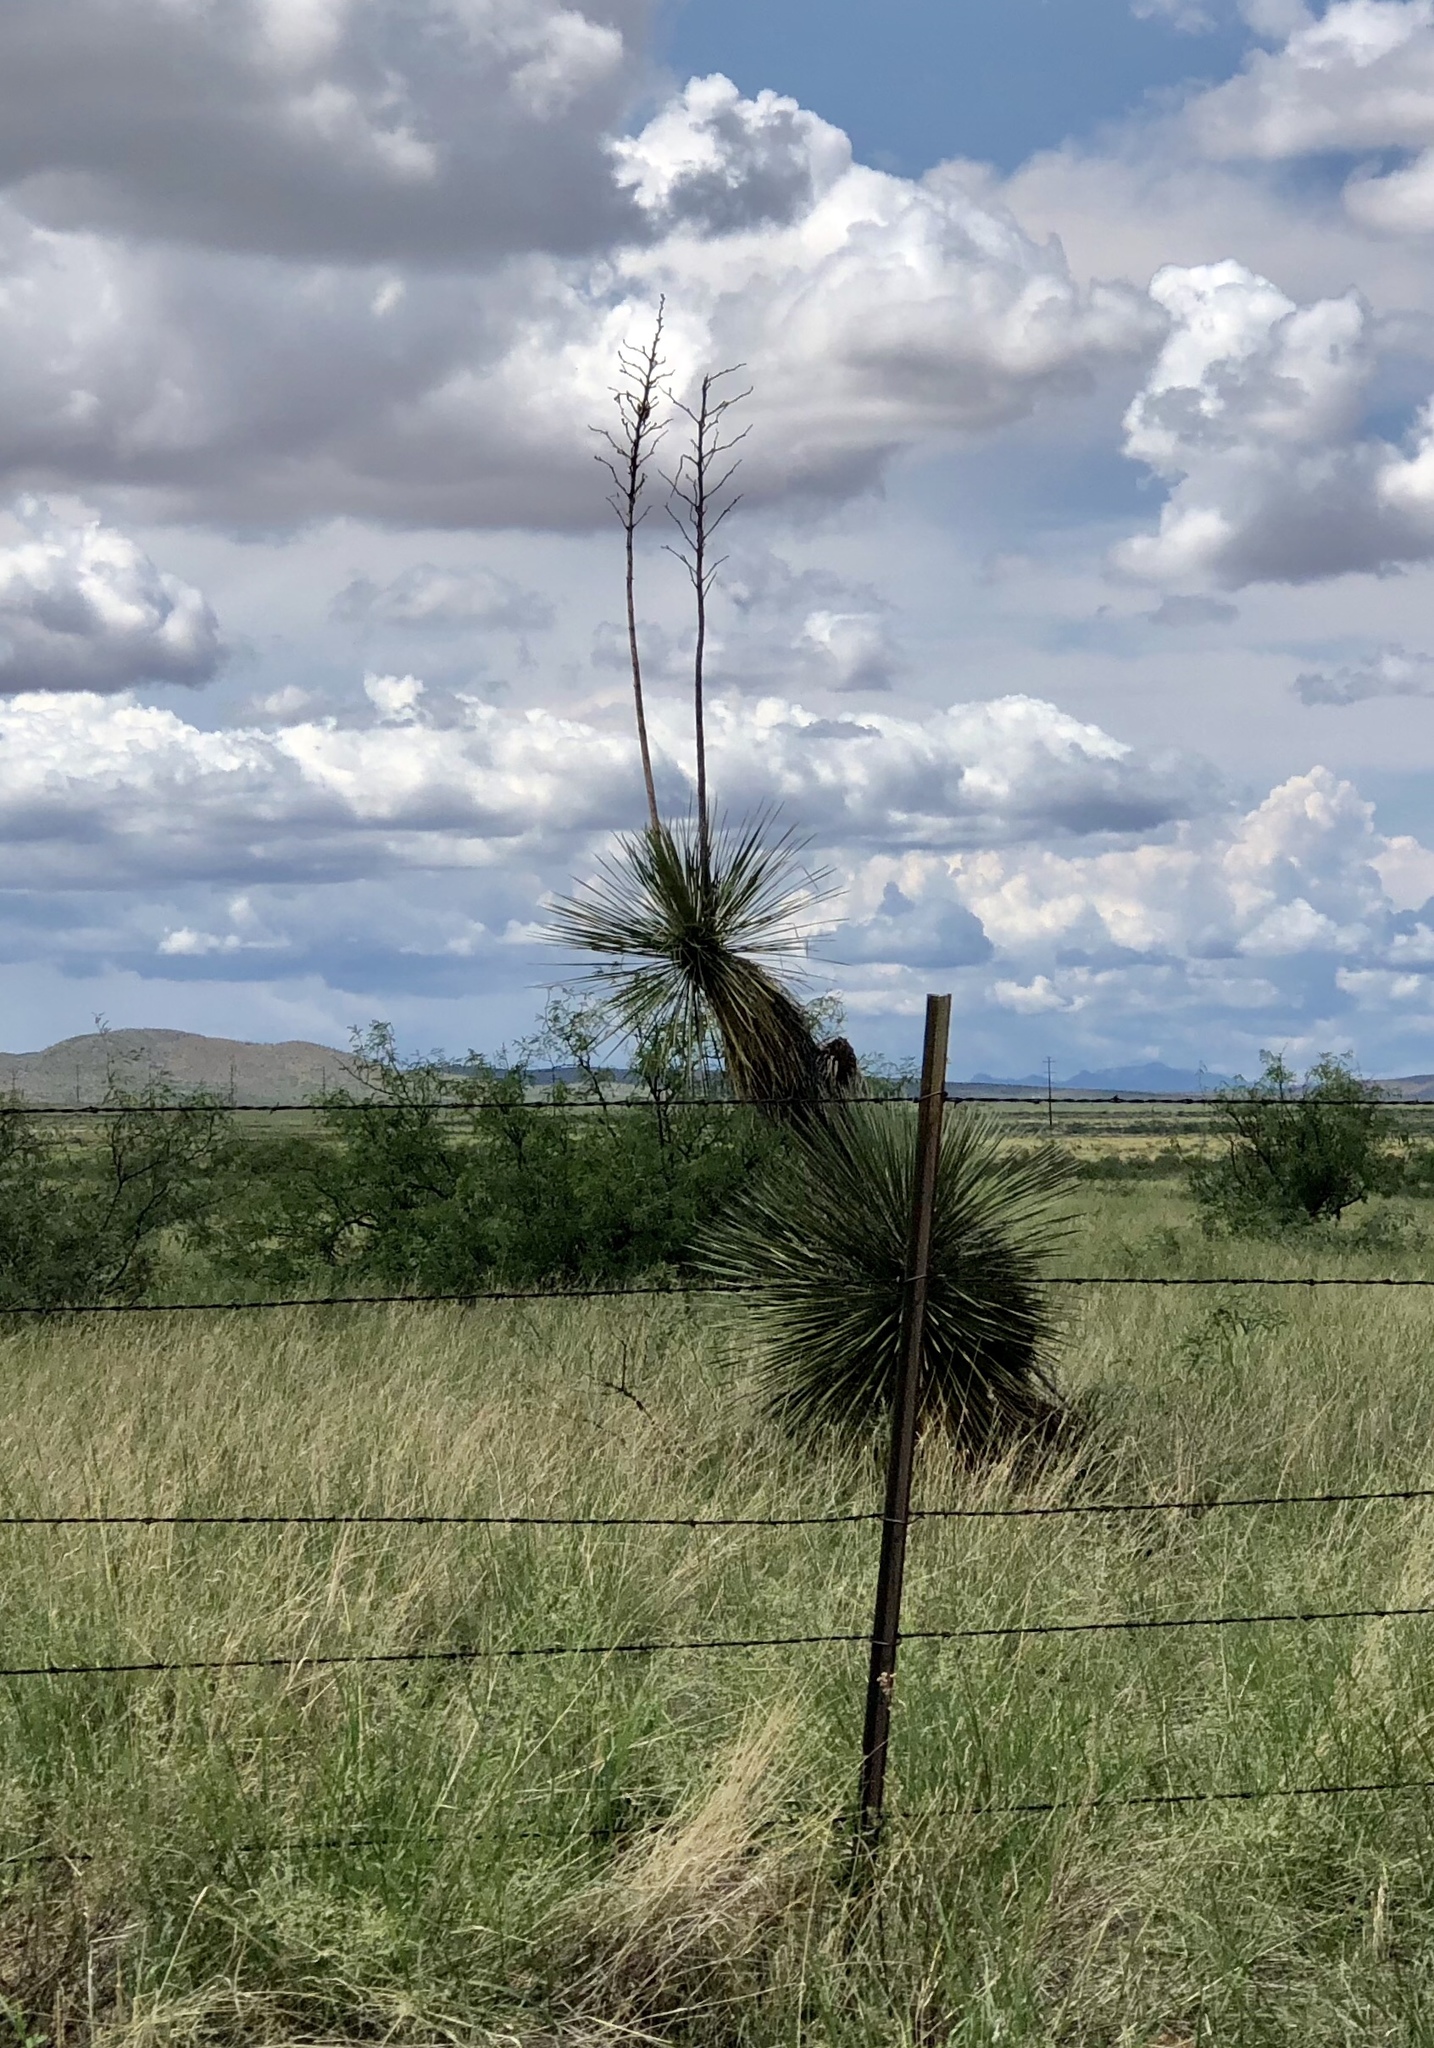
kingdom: Plantae
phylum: Tracheophyta
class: Liliopsida
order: Asparagales
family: Asparagaceae
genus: Yucca
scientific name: Yucca elata
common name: Palmella
